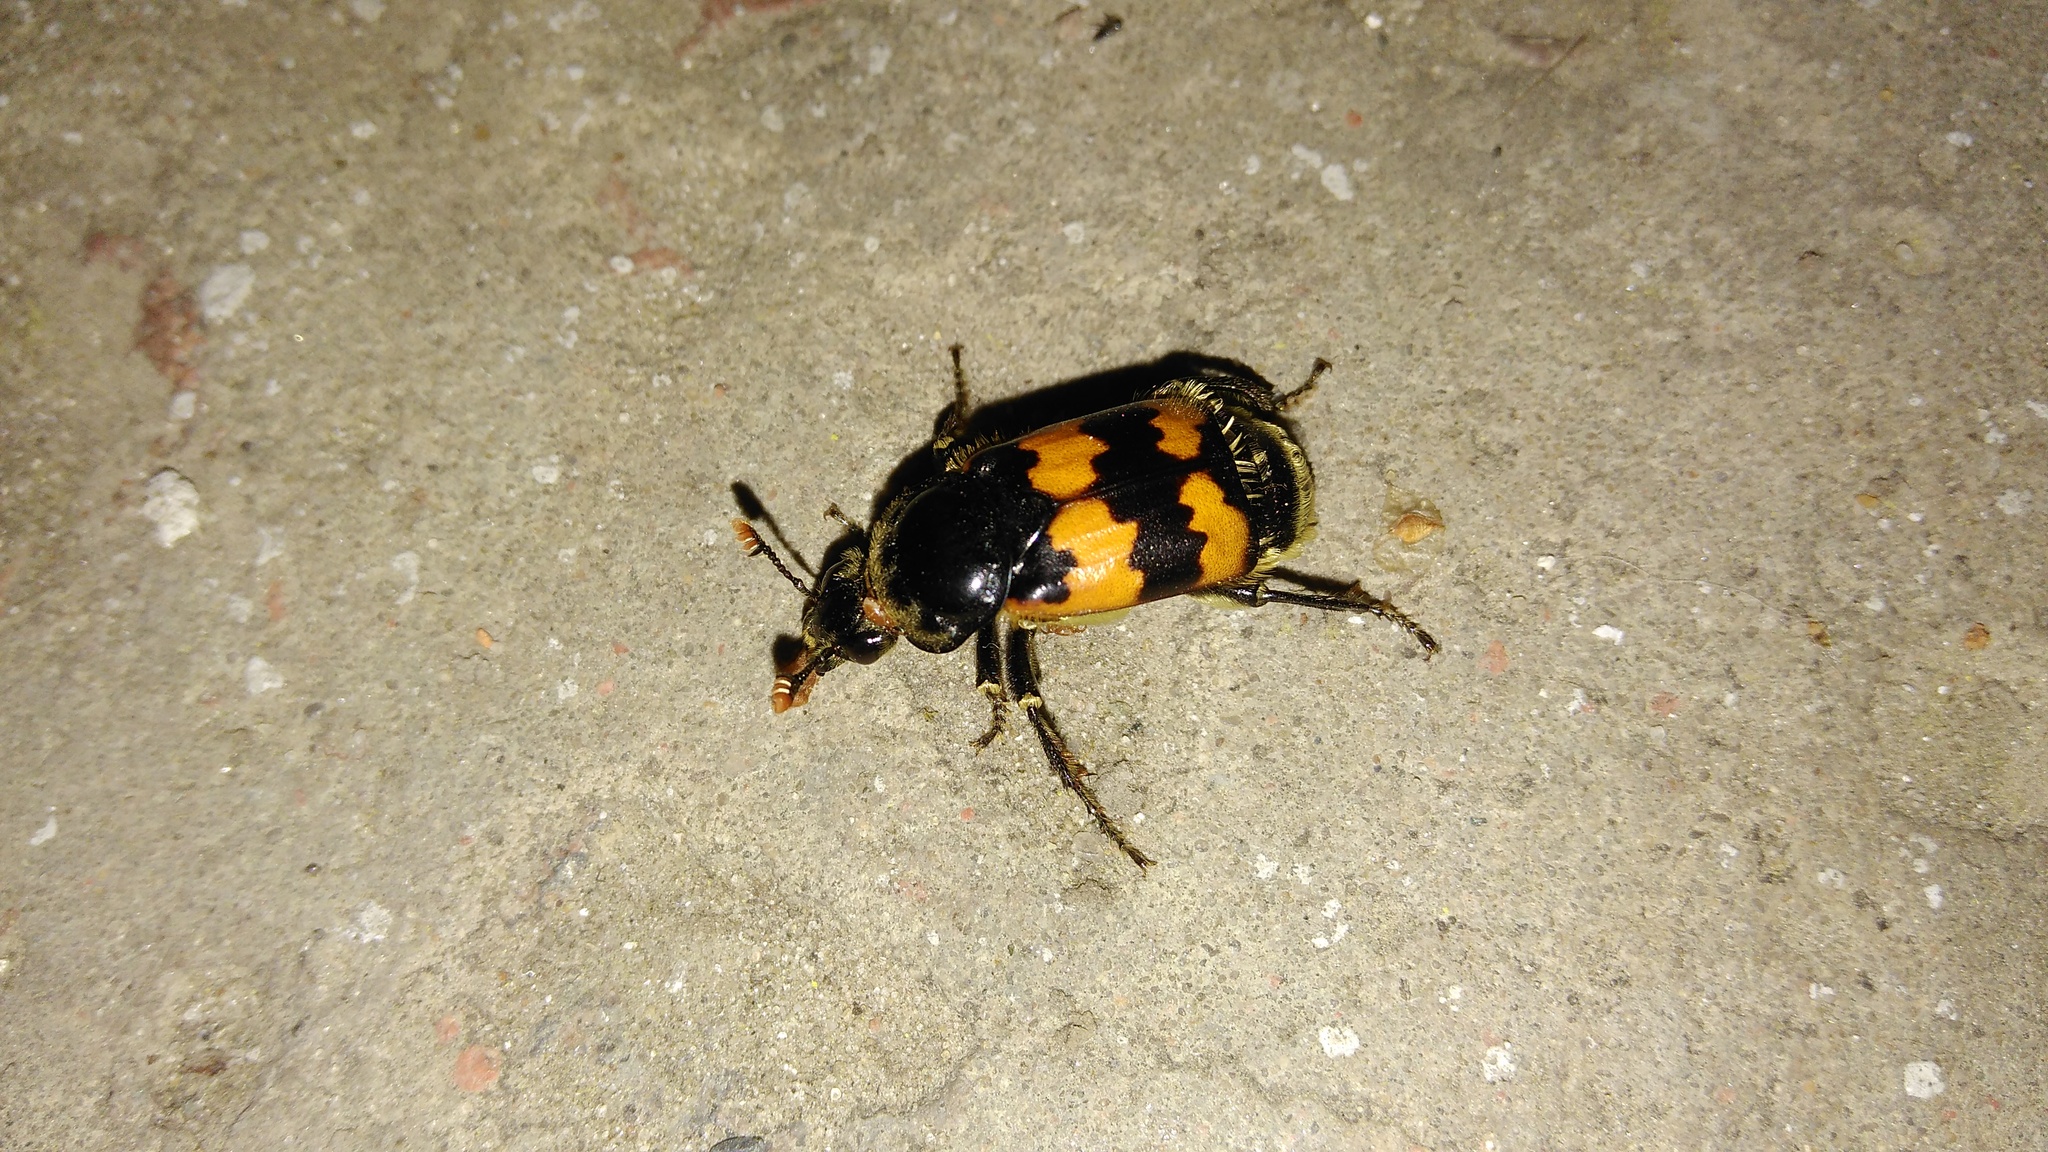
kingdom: Animalia
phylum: Arthropoda
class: Insecta
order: Coleoptera
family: Staphylinidae
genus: Nicrophorus
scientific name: Nicrophorus vespillo
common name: Common burying beetle
